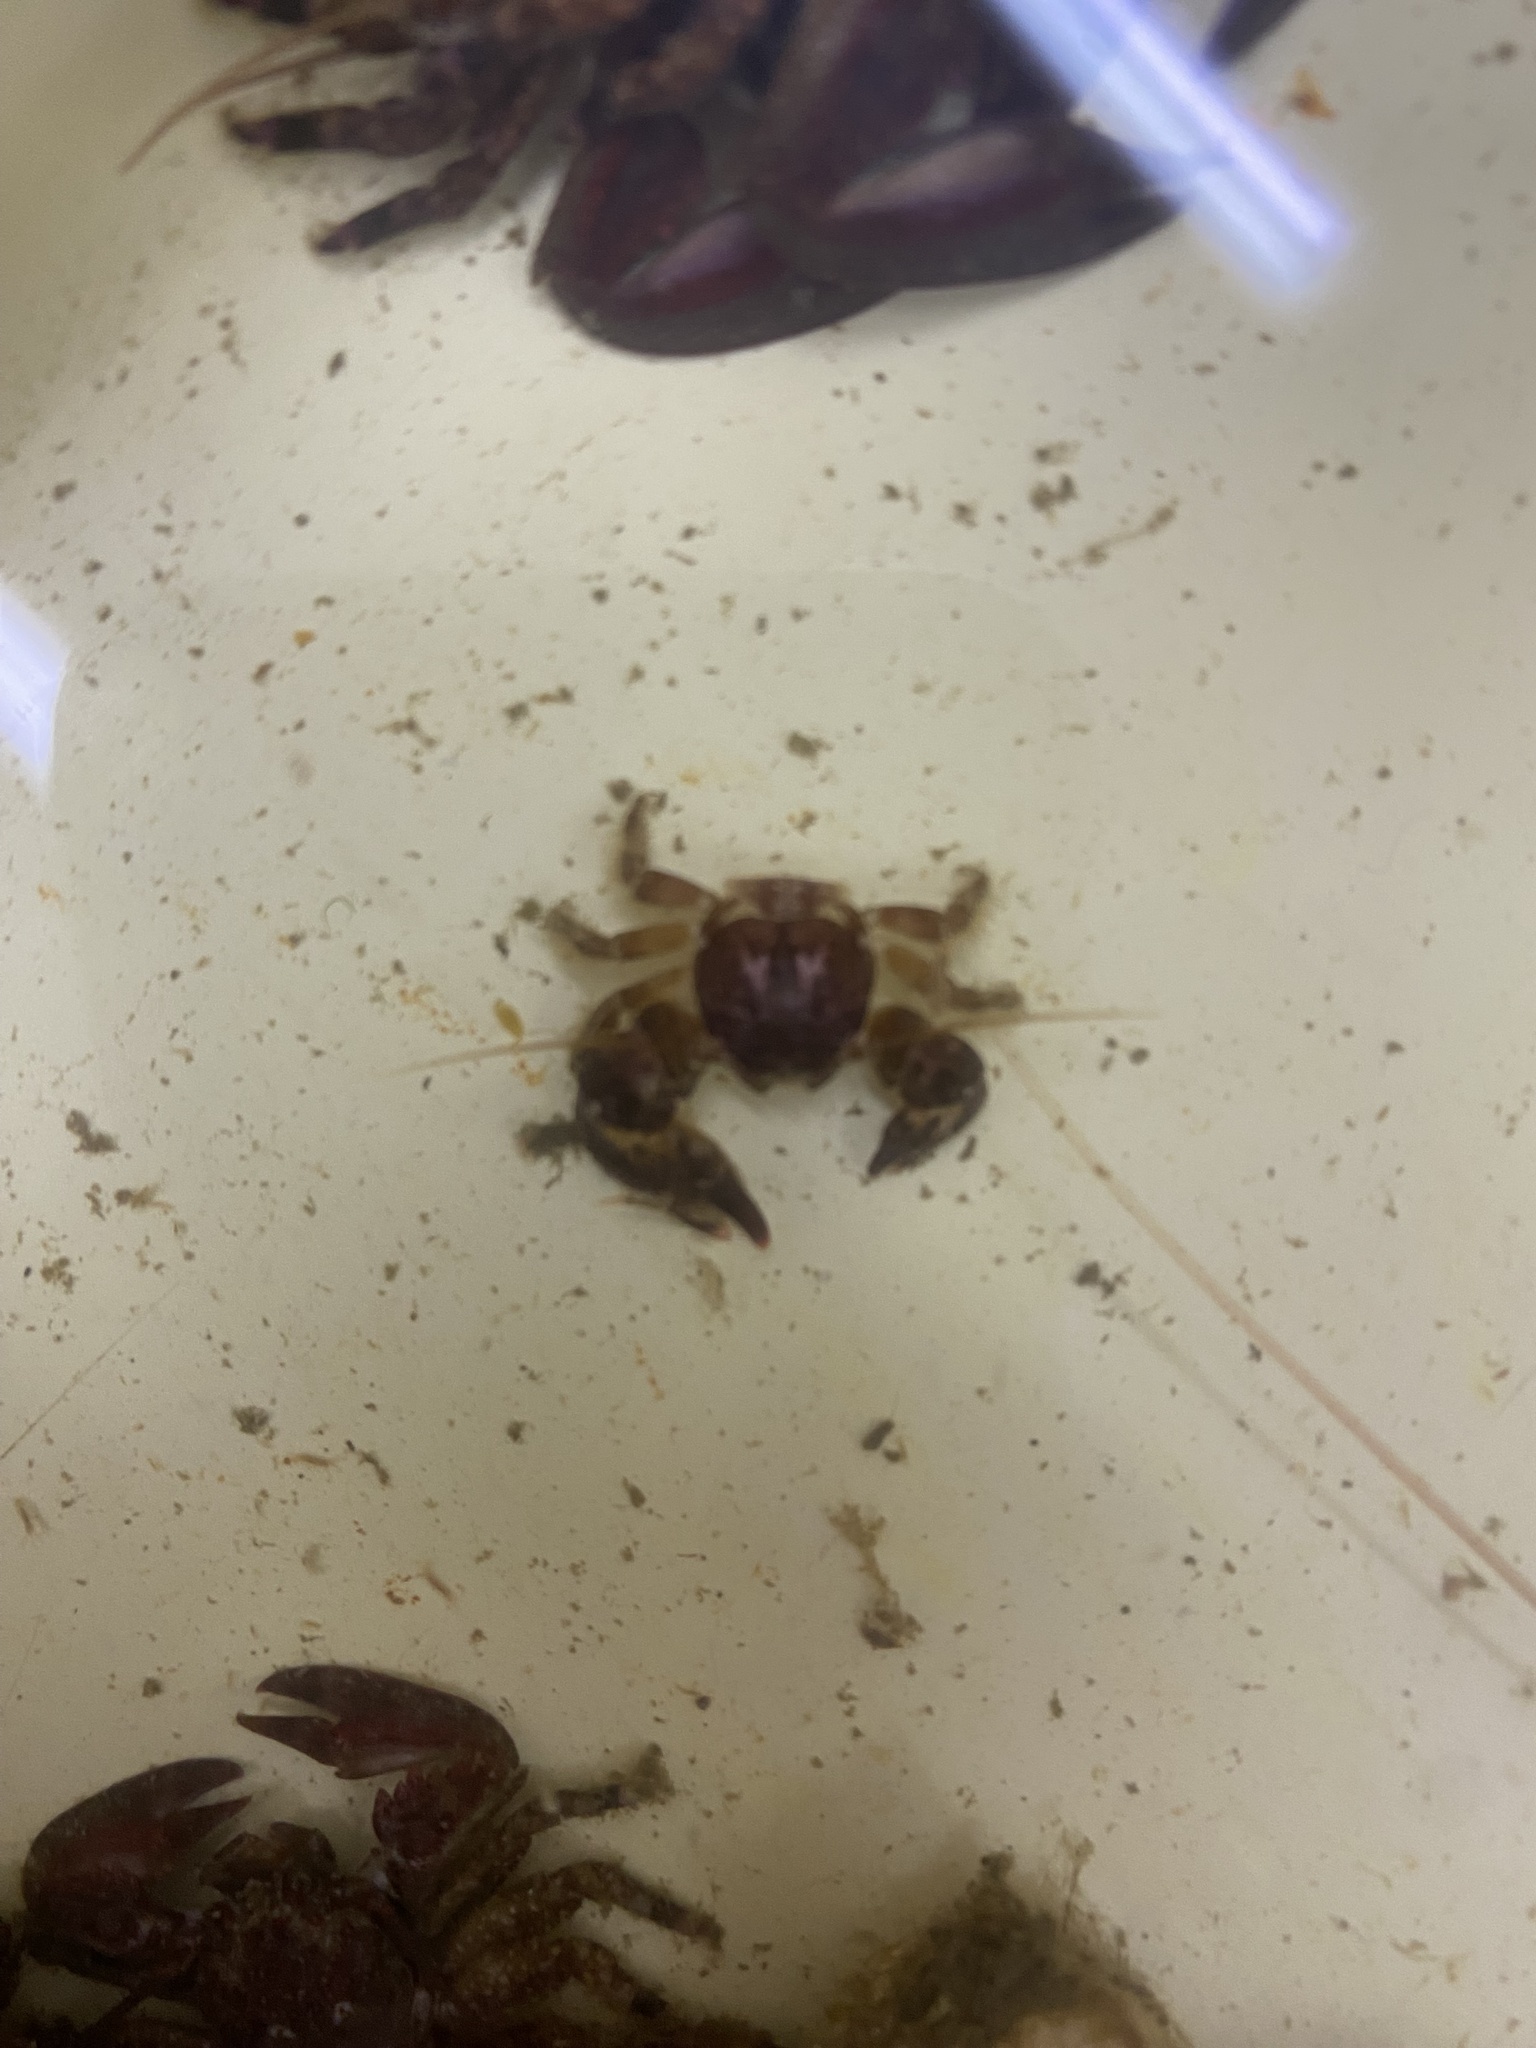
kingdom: Animalia
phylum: Arthropoda
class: Malacostraca
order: Decapoda
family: Porcellanidae
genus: Petrolisthes
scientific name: Petrolisthes tuberculatus
